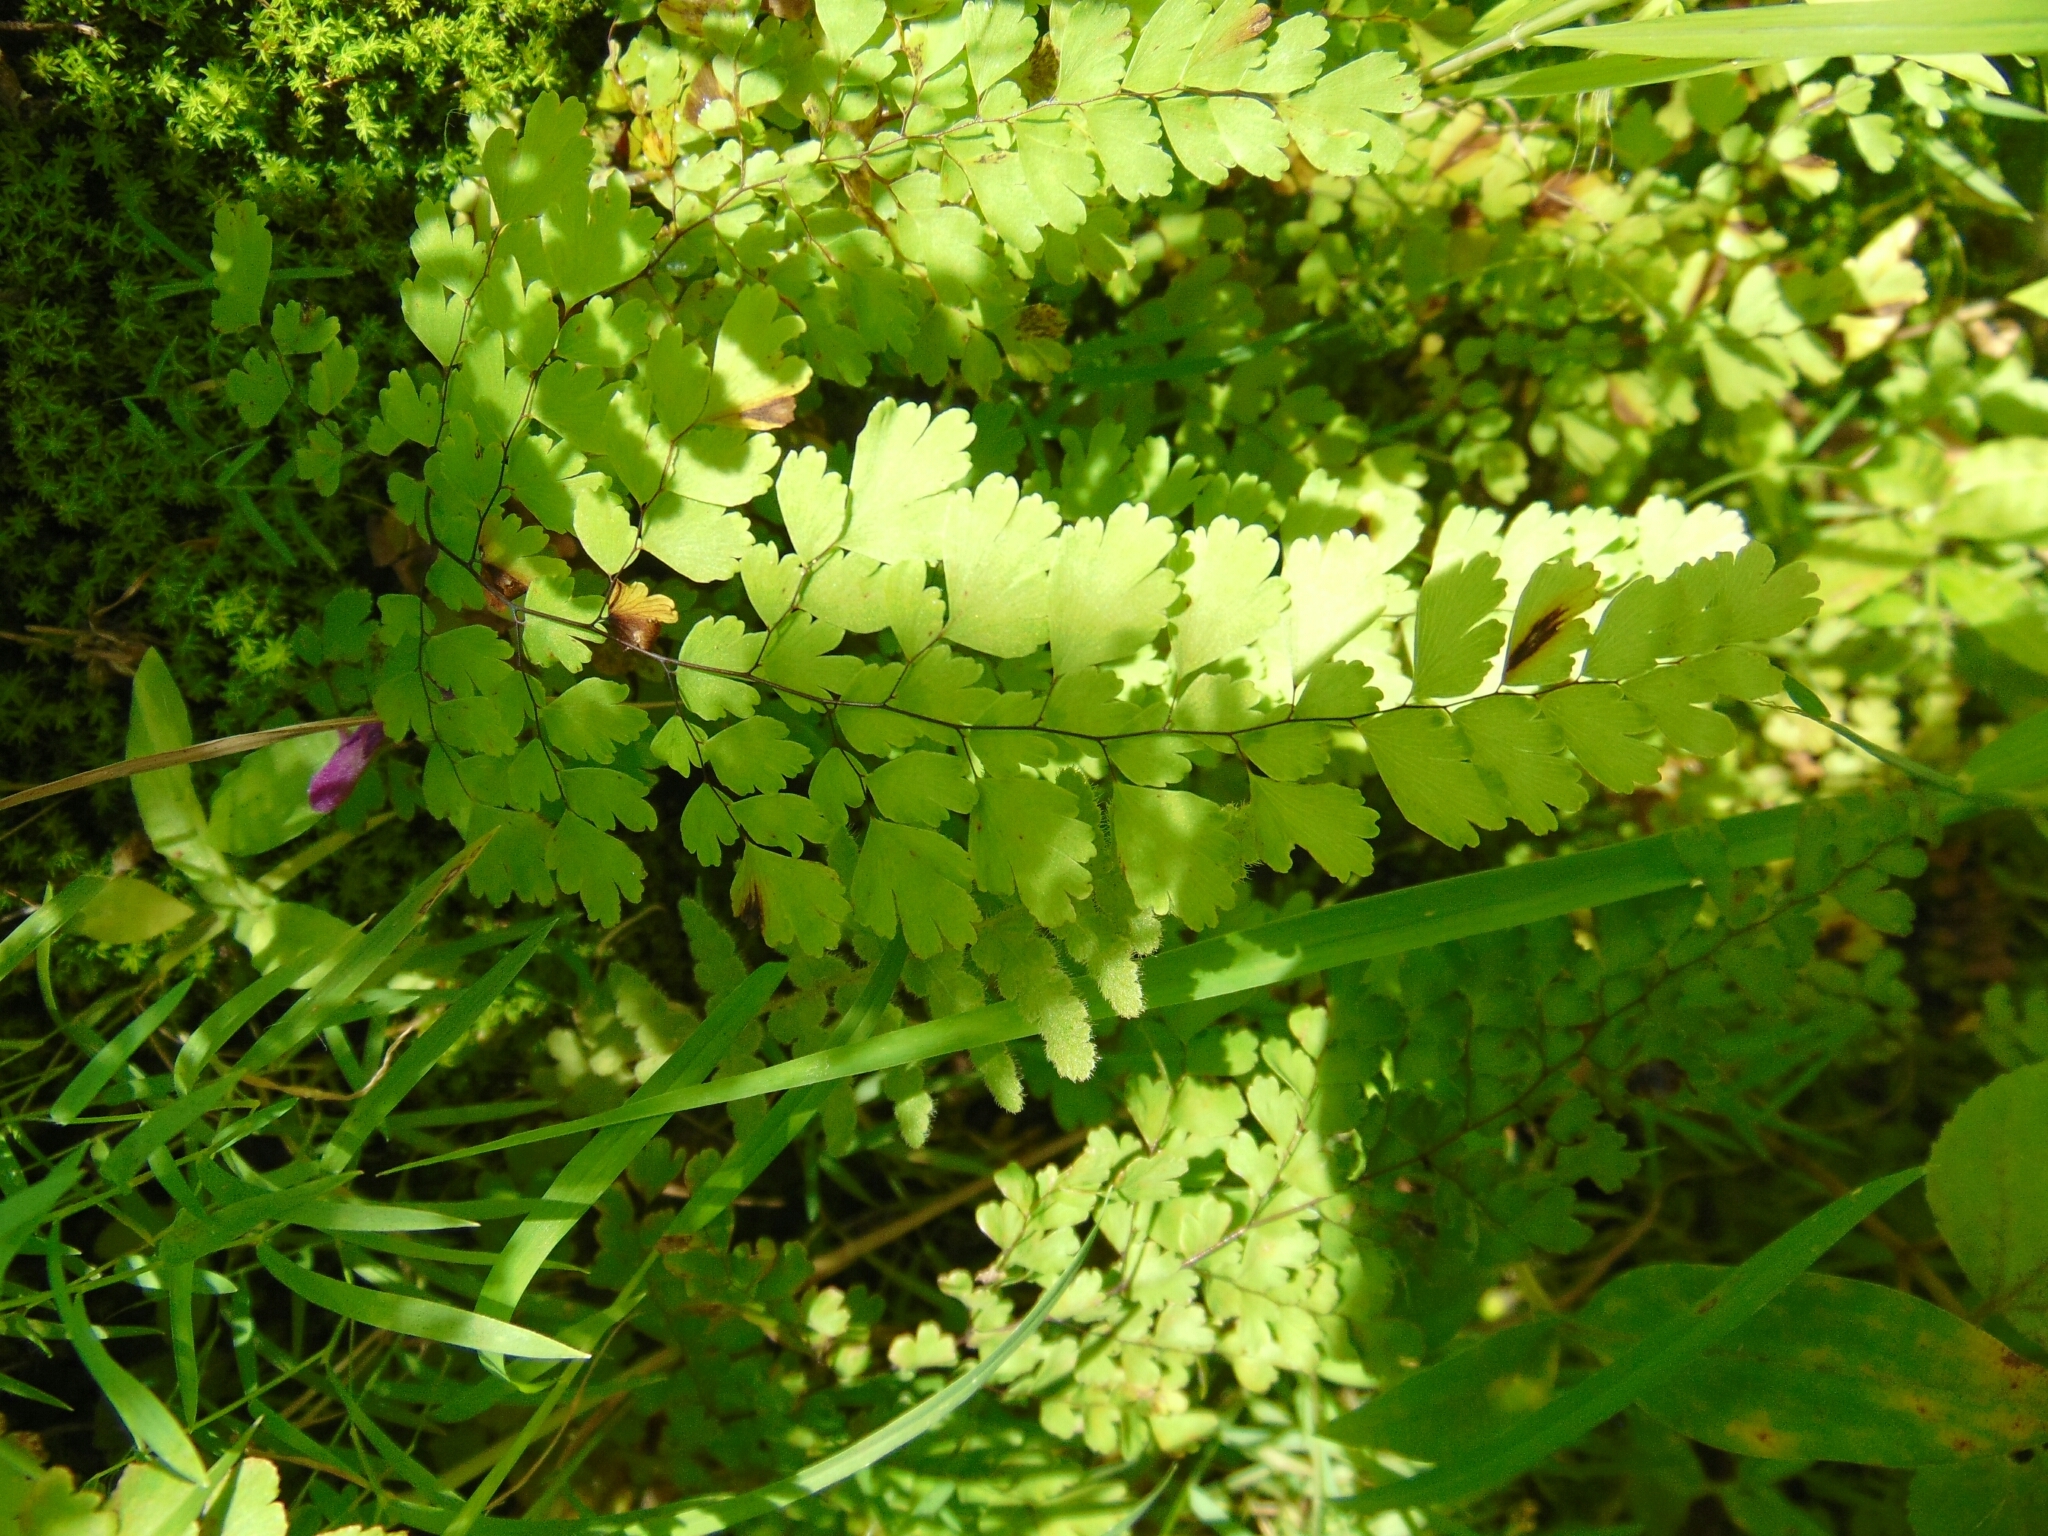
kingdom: Plantae
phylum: Tracheophyta
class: Polypodiopsida
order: Polypodiales
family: Pteridaceae
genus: Adiantum
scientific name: Adiantum concinnum
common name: Brittle maidenhair fern
